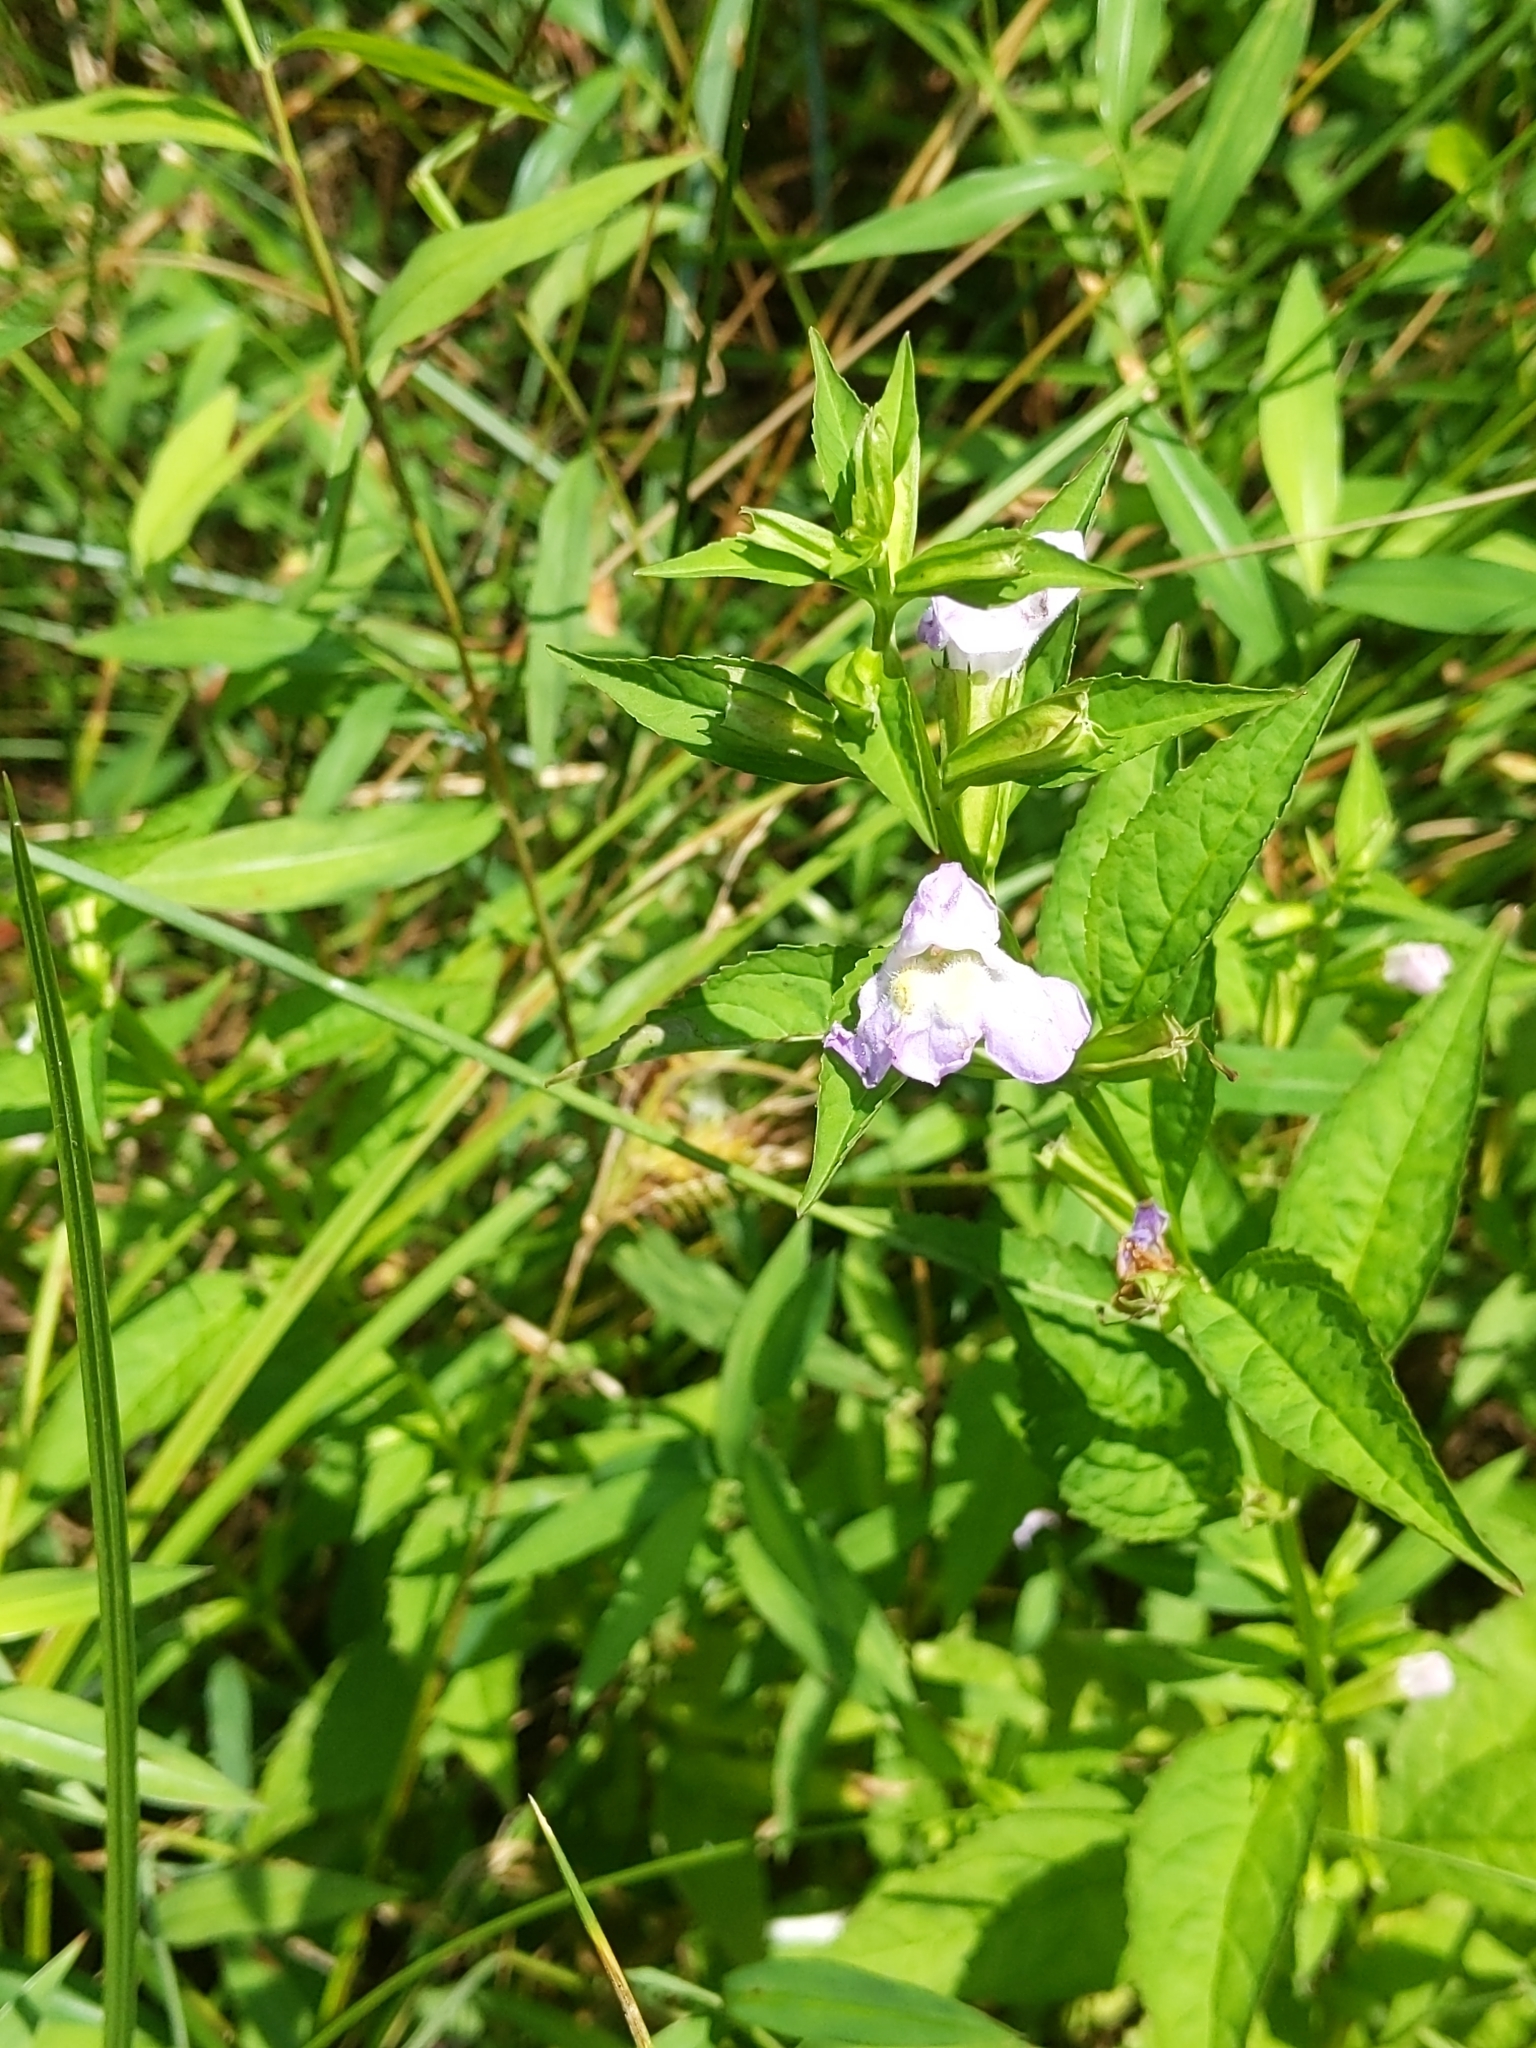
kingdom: Plantae
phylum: Tracheophyta
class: Magnoliopsida
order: Lamiales
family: Phrymaceae
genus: Mimulus
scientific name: Mimulus alatus
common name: Sharp-wing monkey-flower
